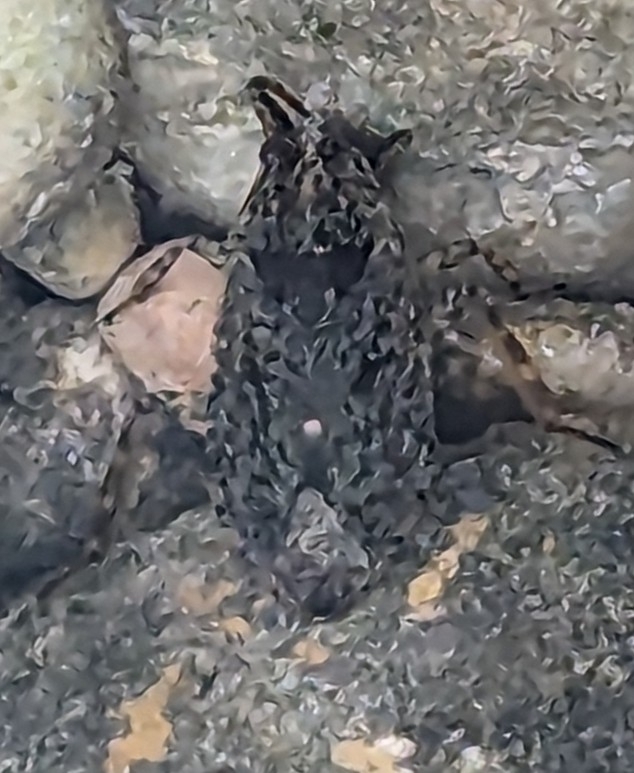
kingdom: Animalia
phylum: Arthropoda
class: Insecta
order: Hemiptera
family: Belostomatidae
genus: Belostoma
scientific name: Belostoma
